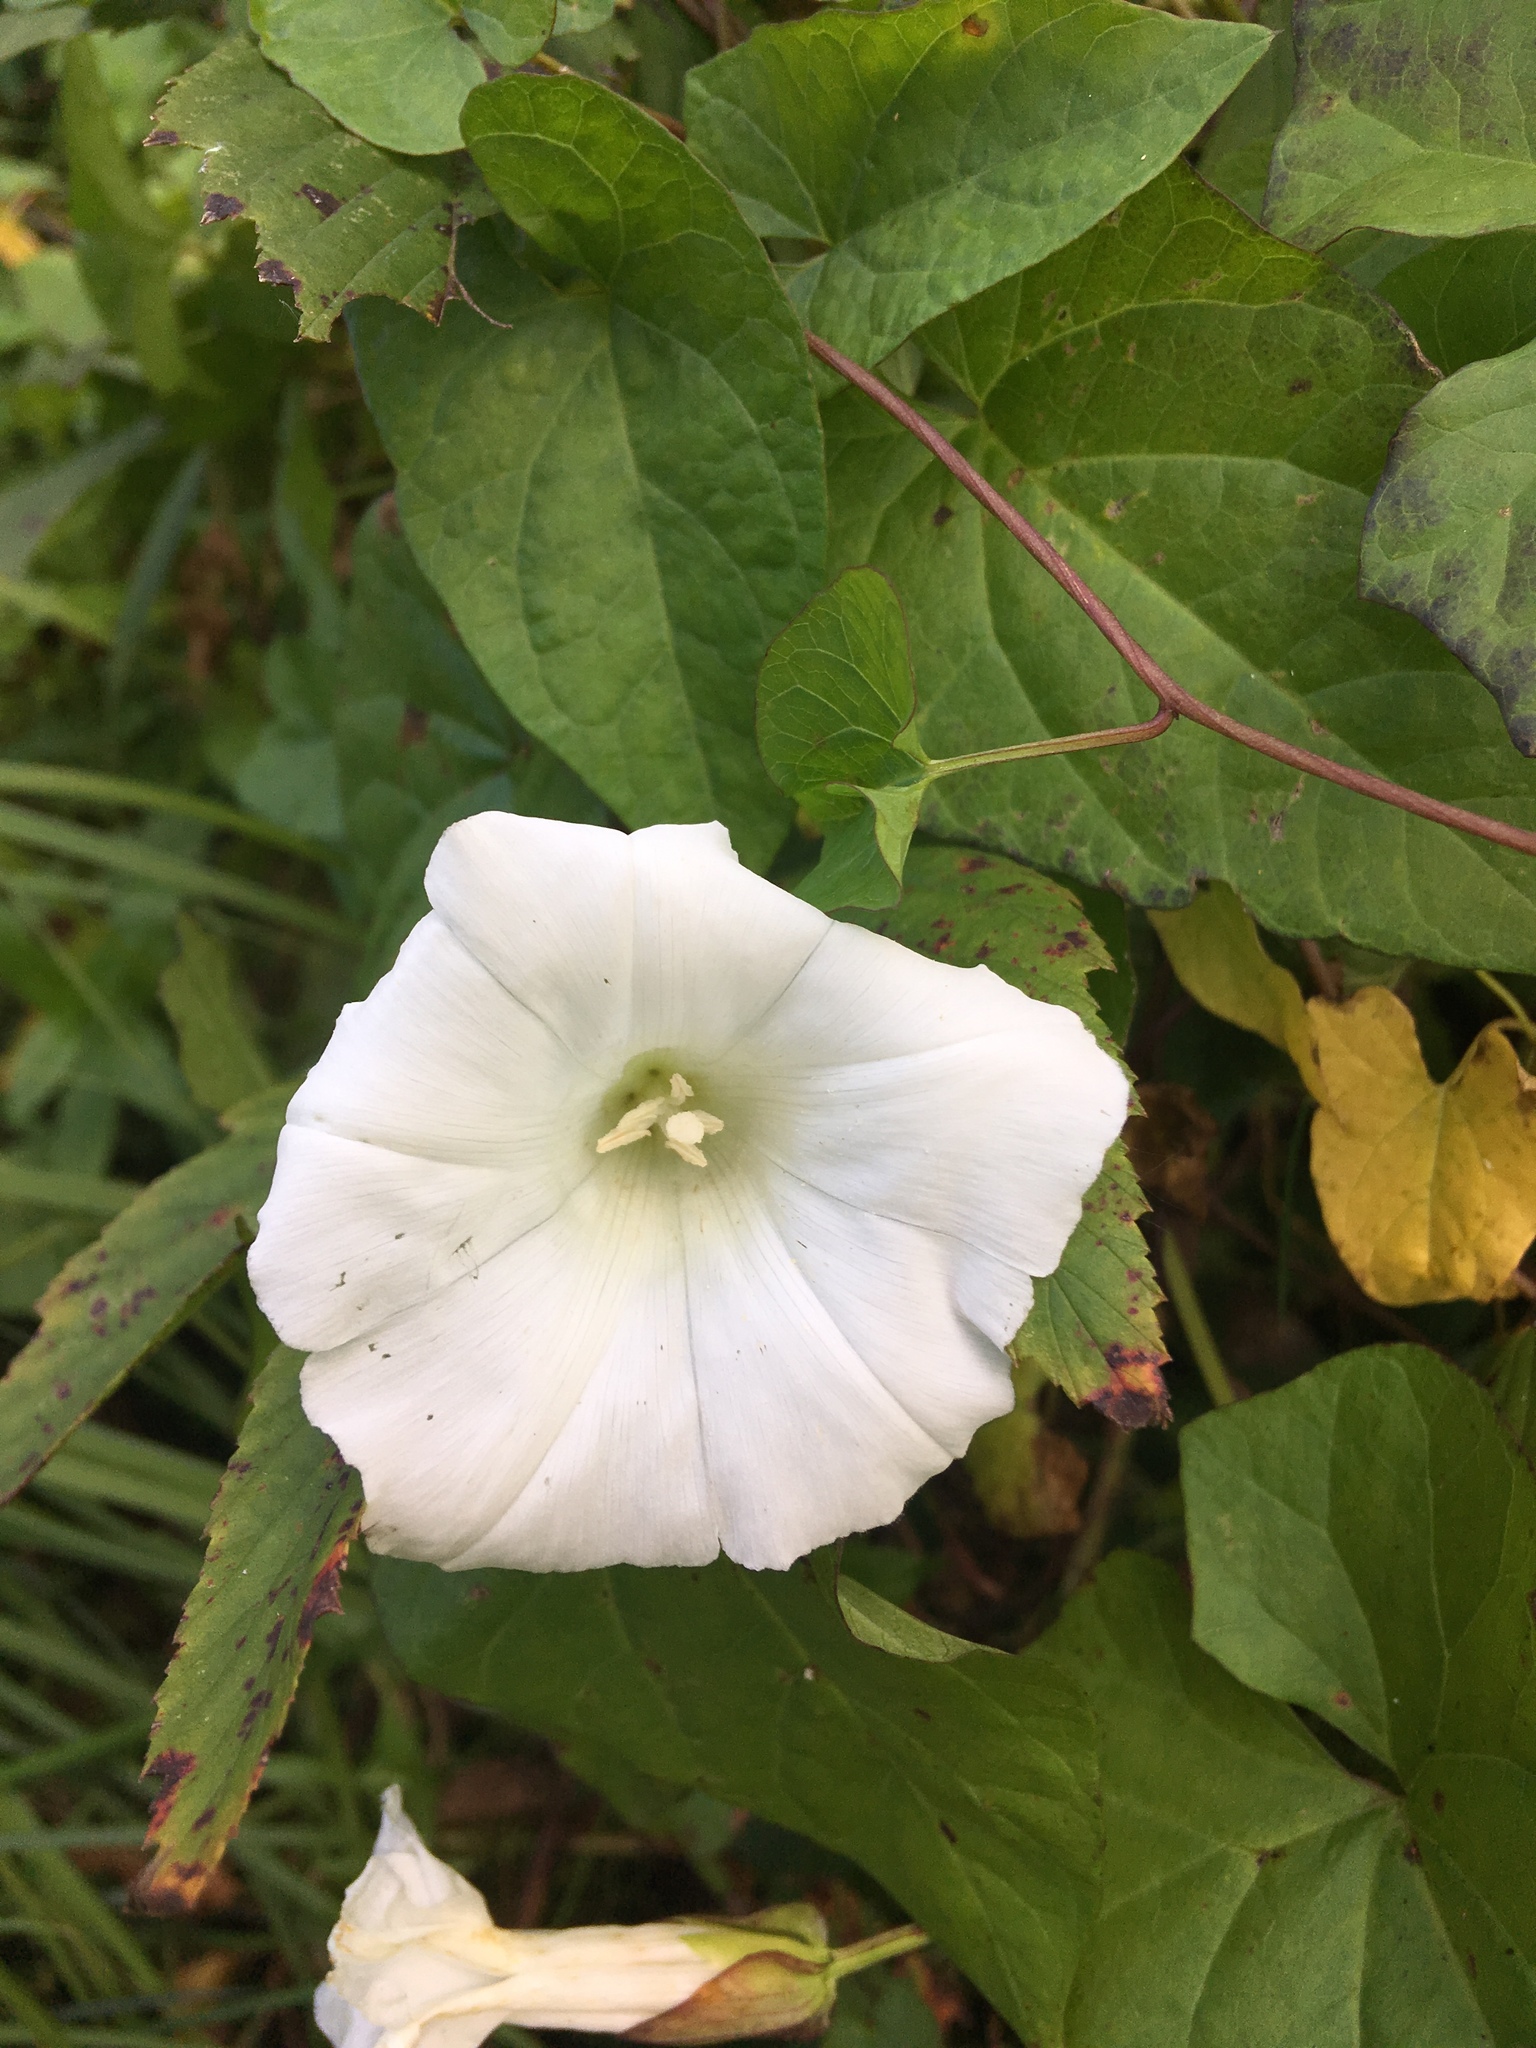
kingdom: Plantae
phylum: Tracheophyta
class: Magnoliopsida
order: Solanales
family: Convolvulaceae
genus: Calystegia
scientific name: Calystegia sepium
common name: Hedge bindweed
